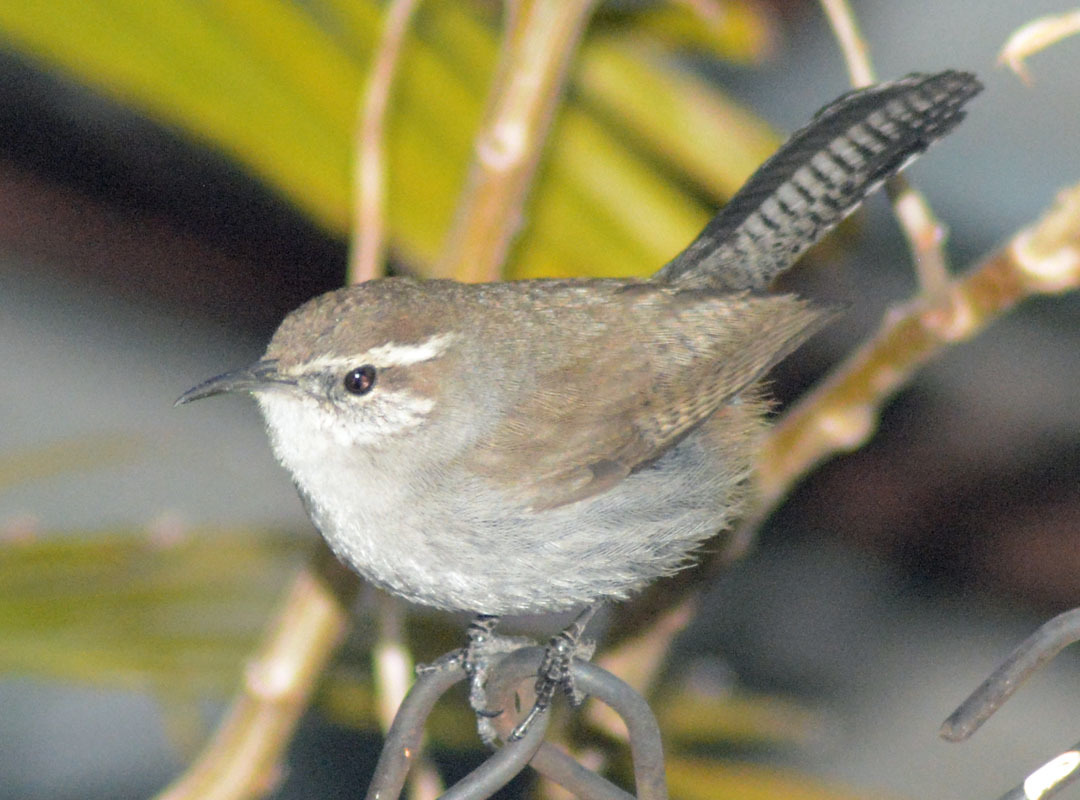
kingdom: Animalia
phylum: Chordata
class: Aves
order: Passeriformes
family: Troglodytidae
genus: Thryomanes
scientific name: Thryomanes bewickii
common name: Bewick's wren
